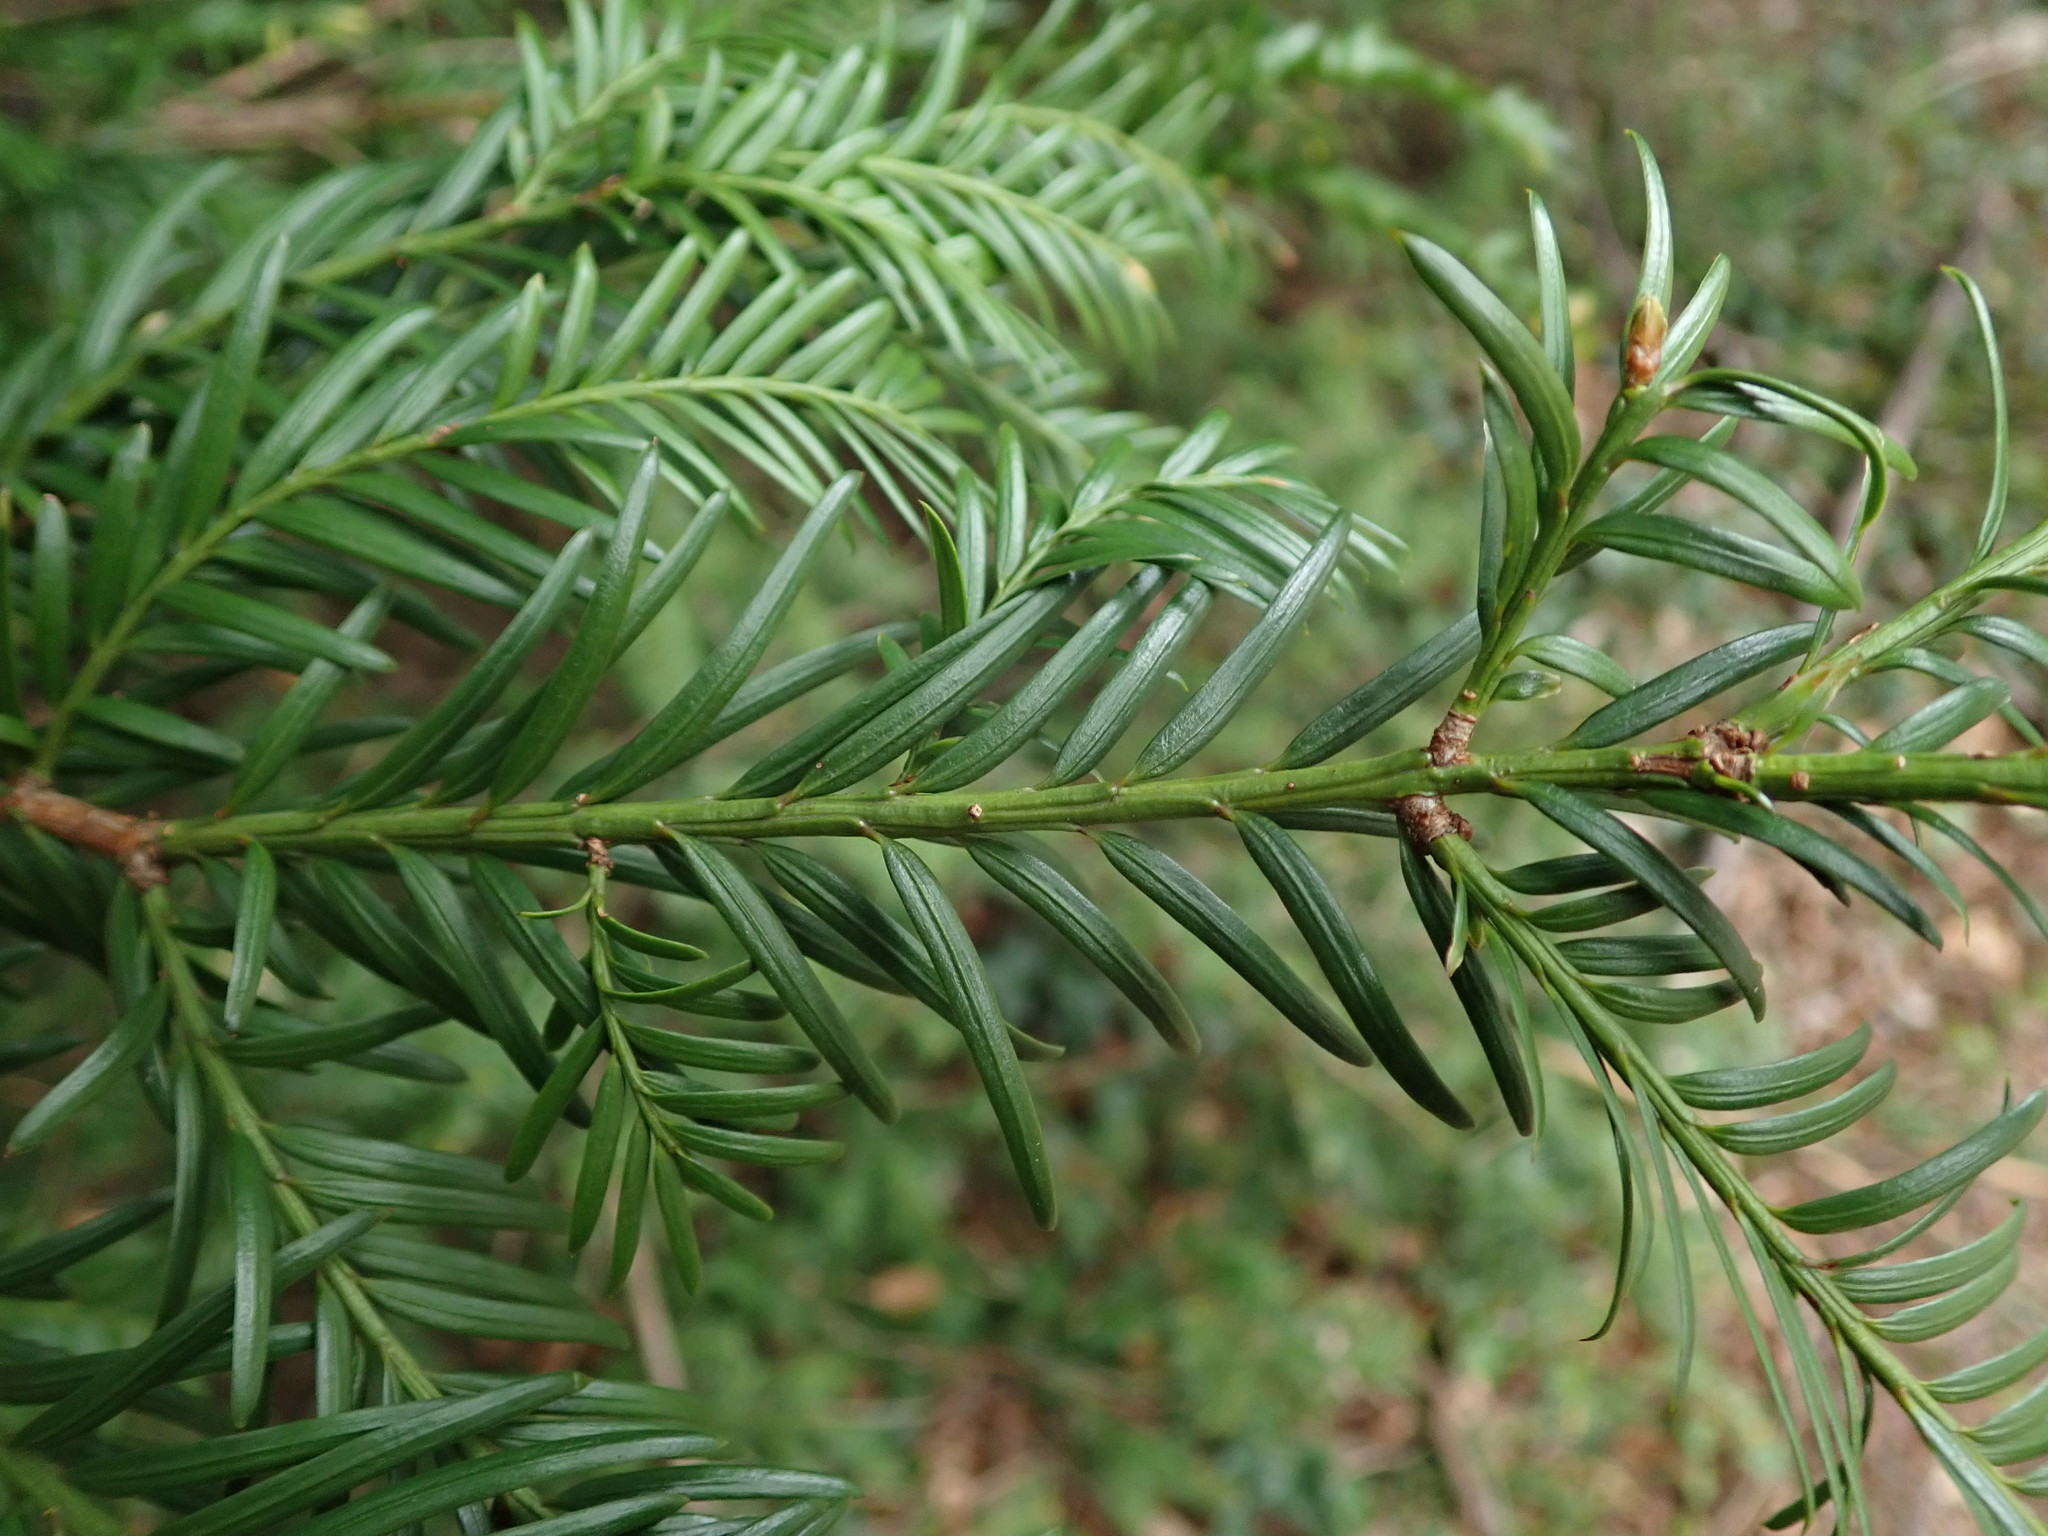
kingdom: Plantae
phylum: Tracheophyta
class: Pinopsida
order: Pinales
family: Taxaceae
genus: Taxus
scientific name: Taxus baccata
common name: Yew
